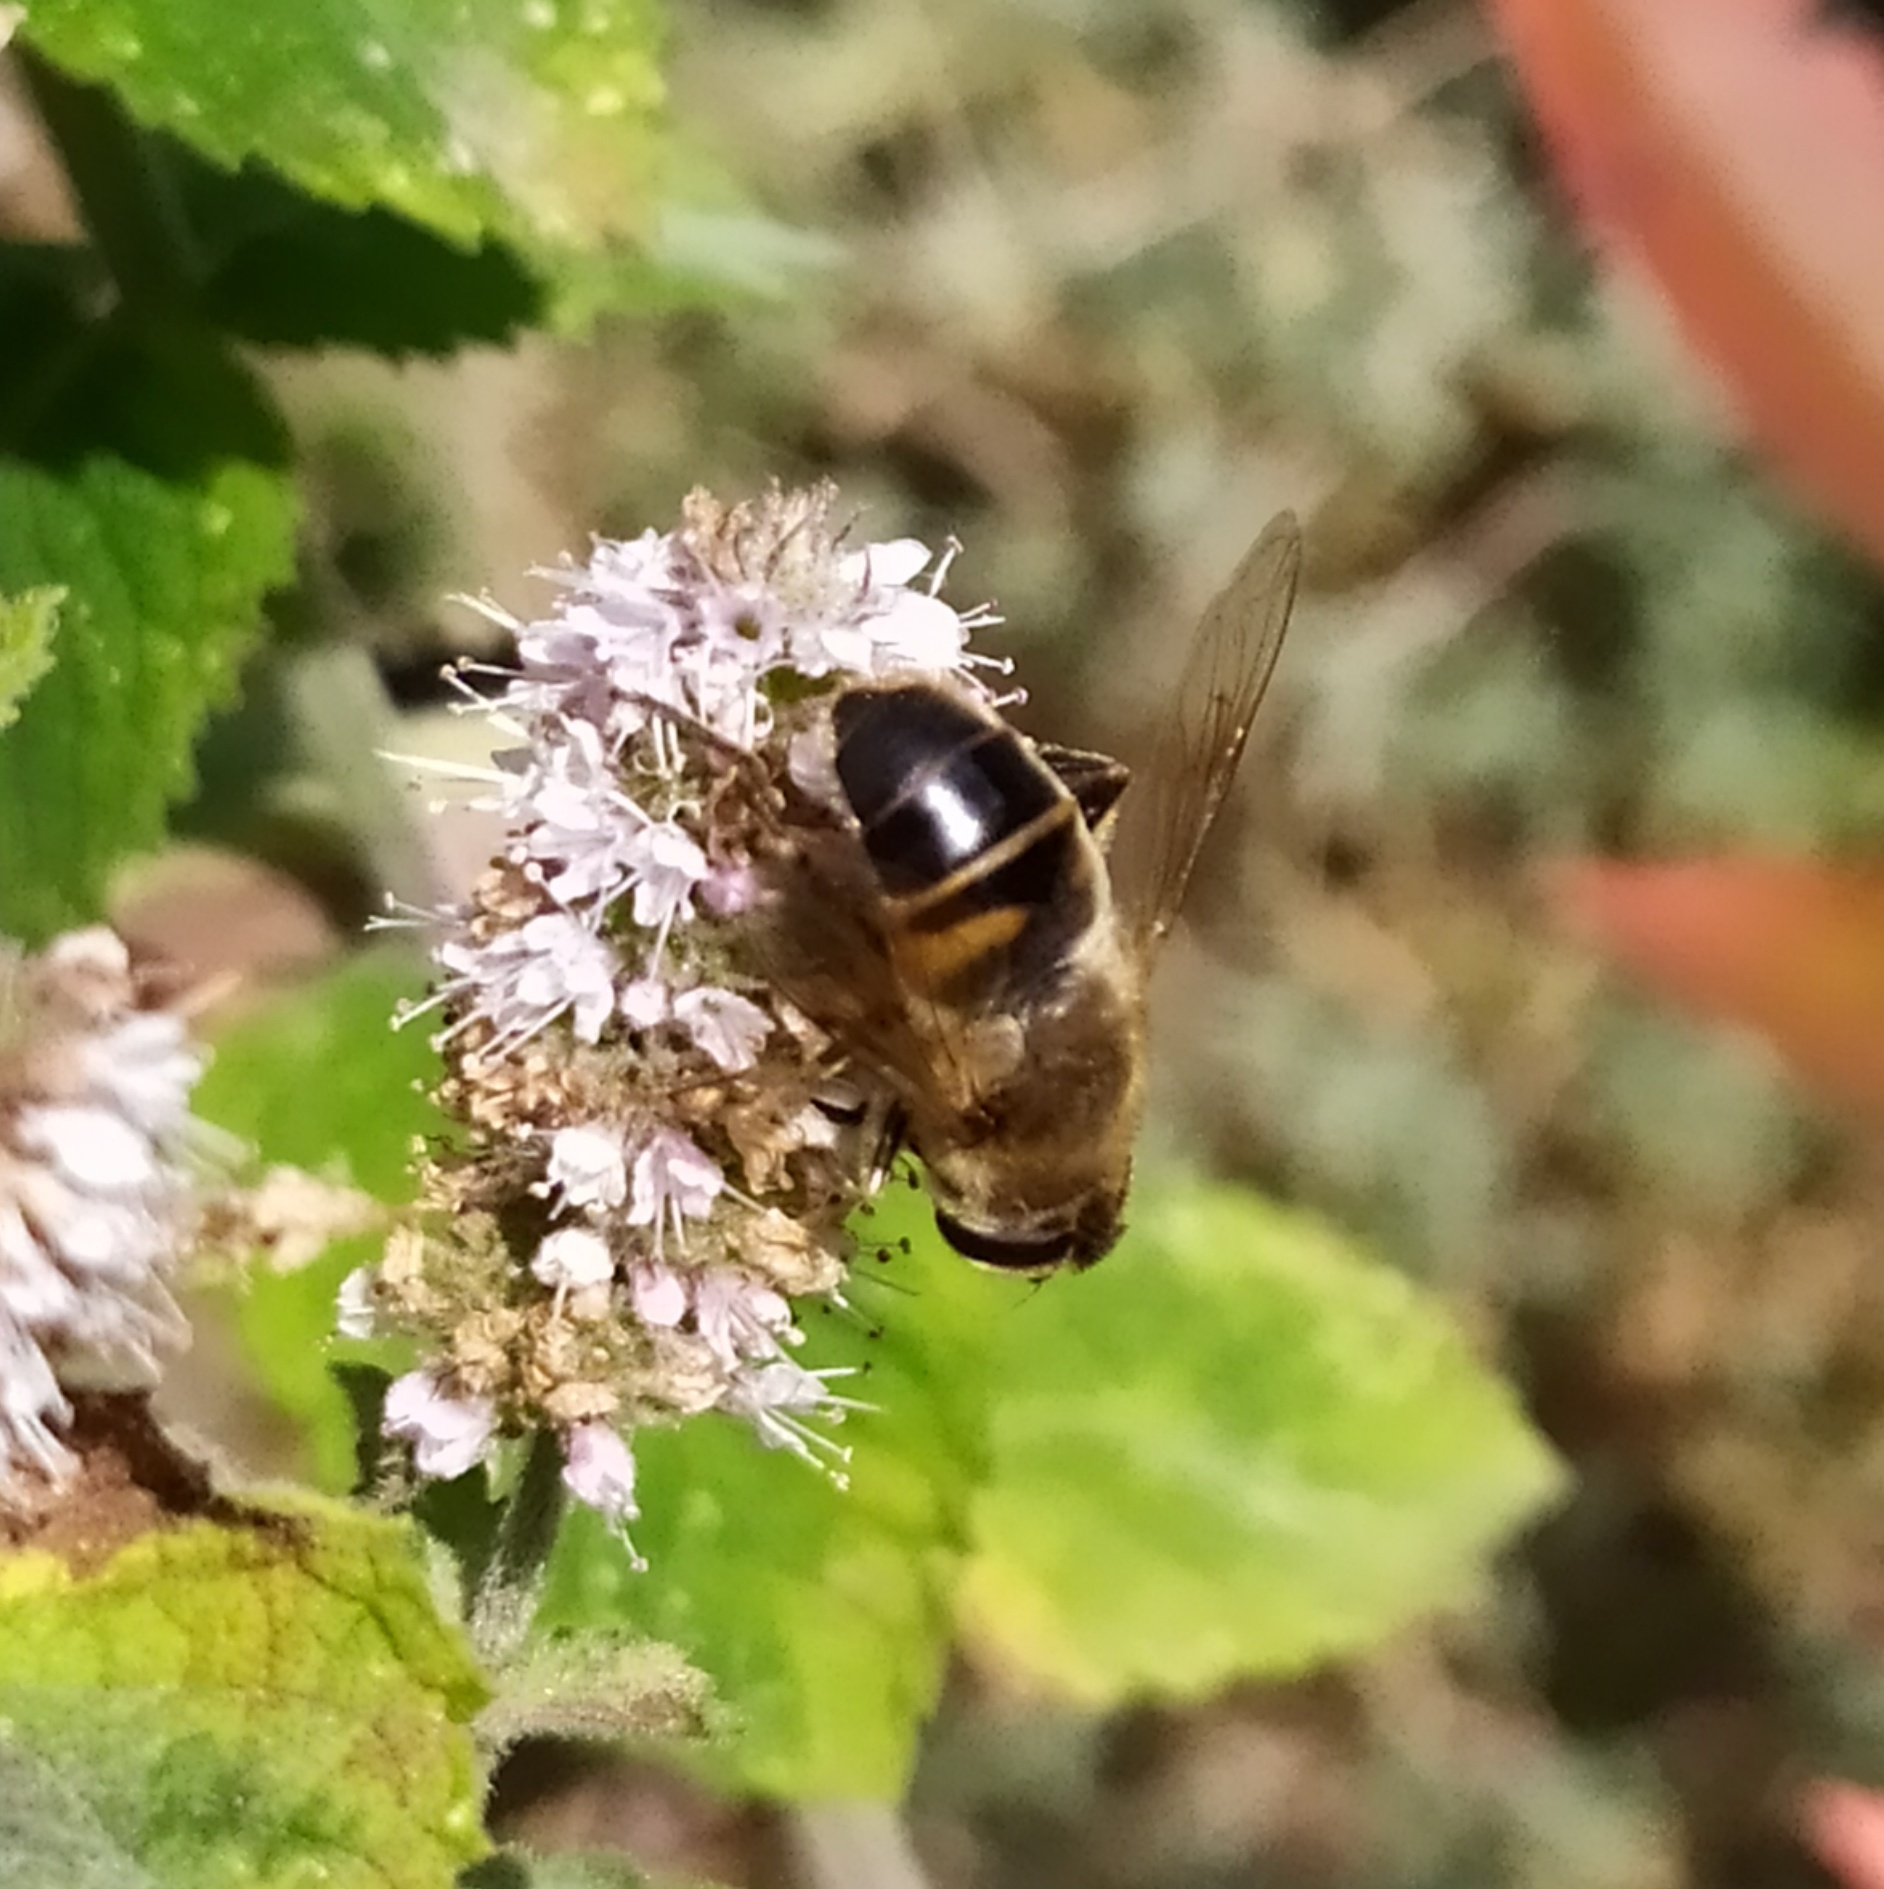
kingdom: Animalia
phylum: Arthropoda
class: Insecta
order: Diptera
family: Syrphidae
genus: Eristalis
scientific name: Eristalis tenax
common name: Drone fly
